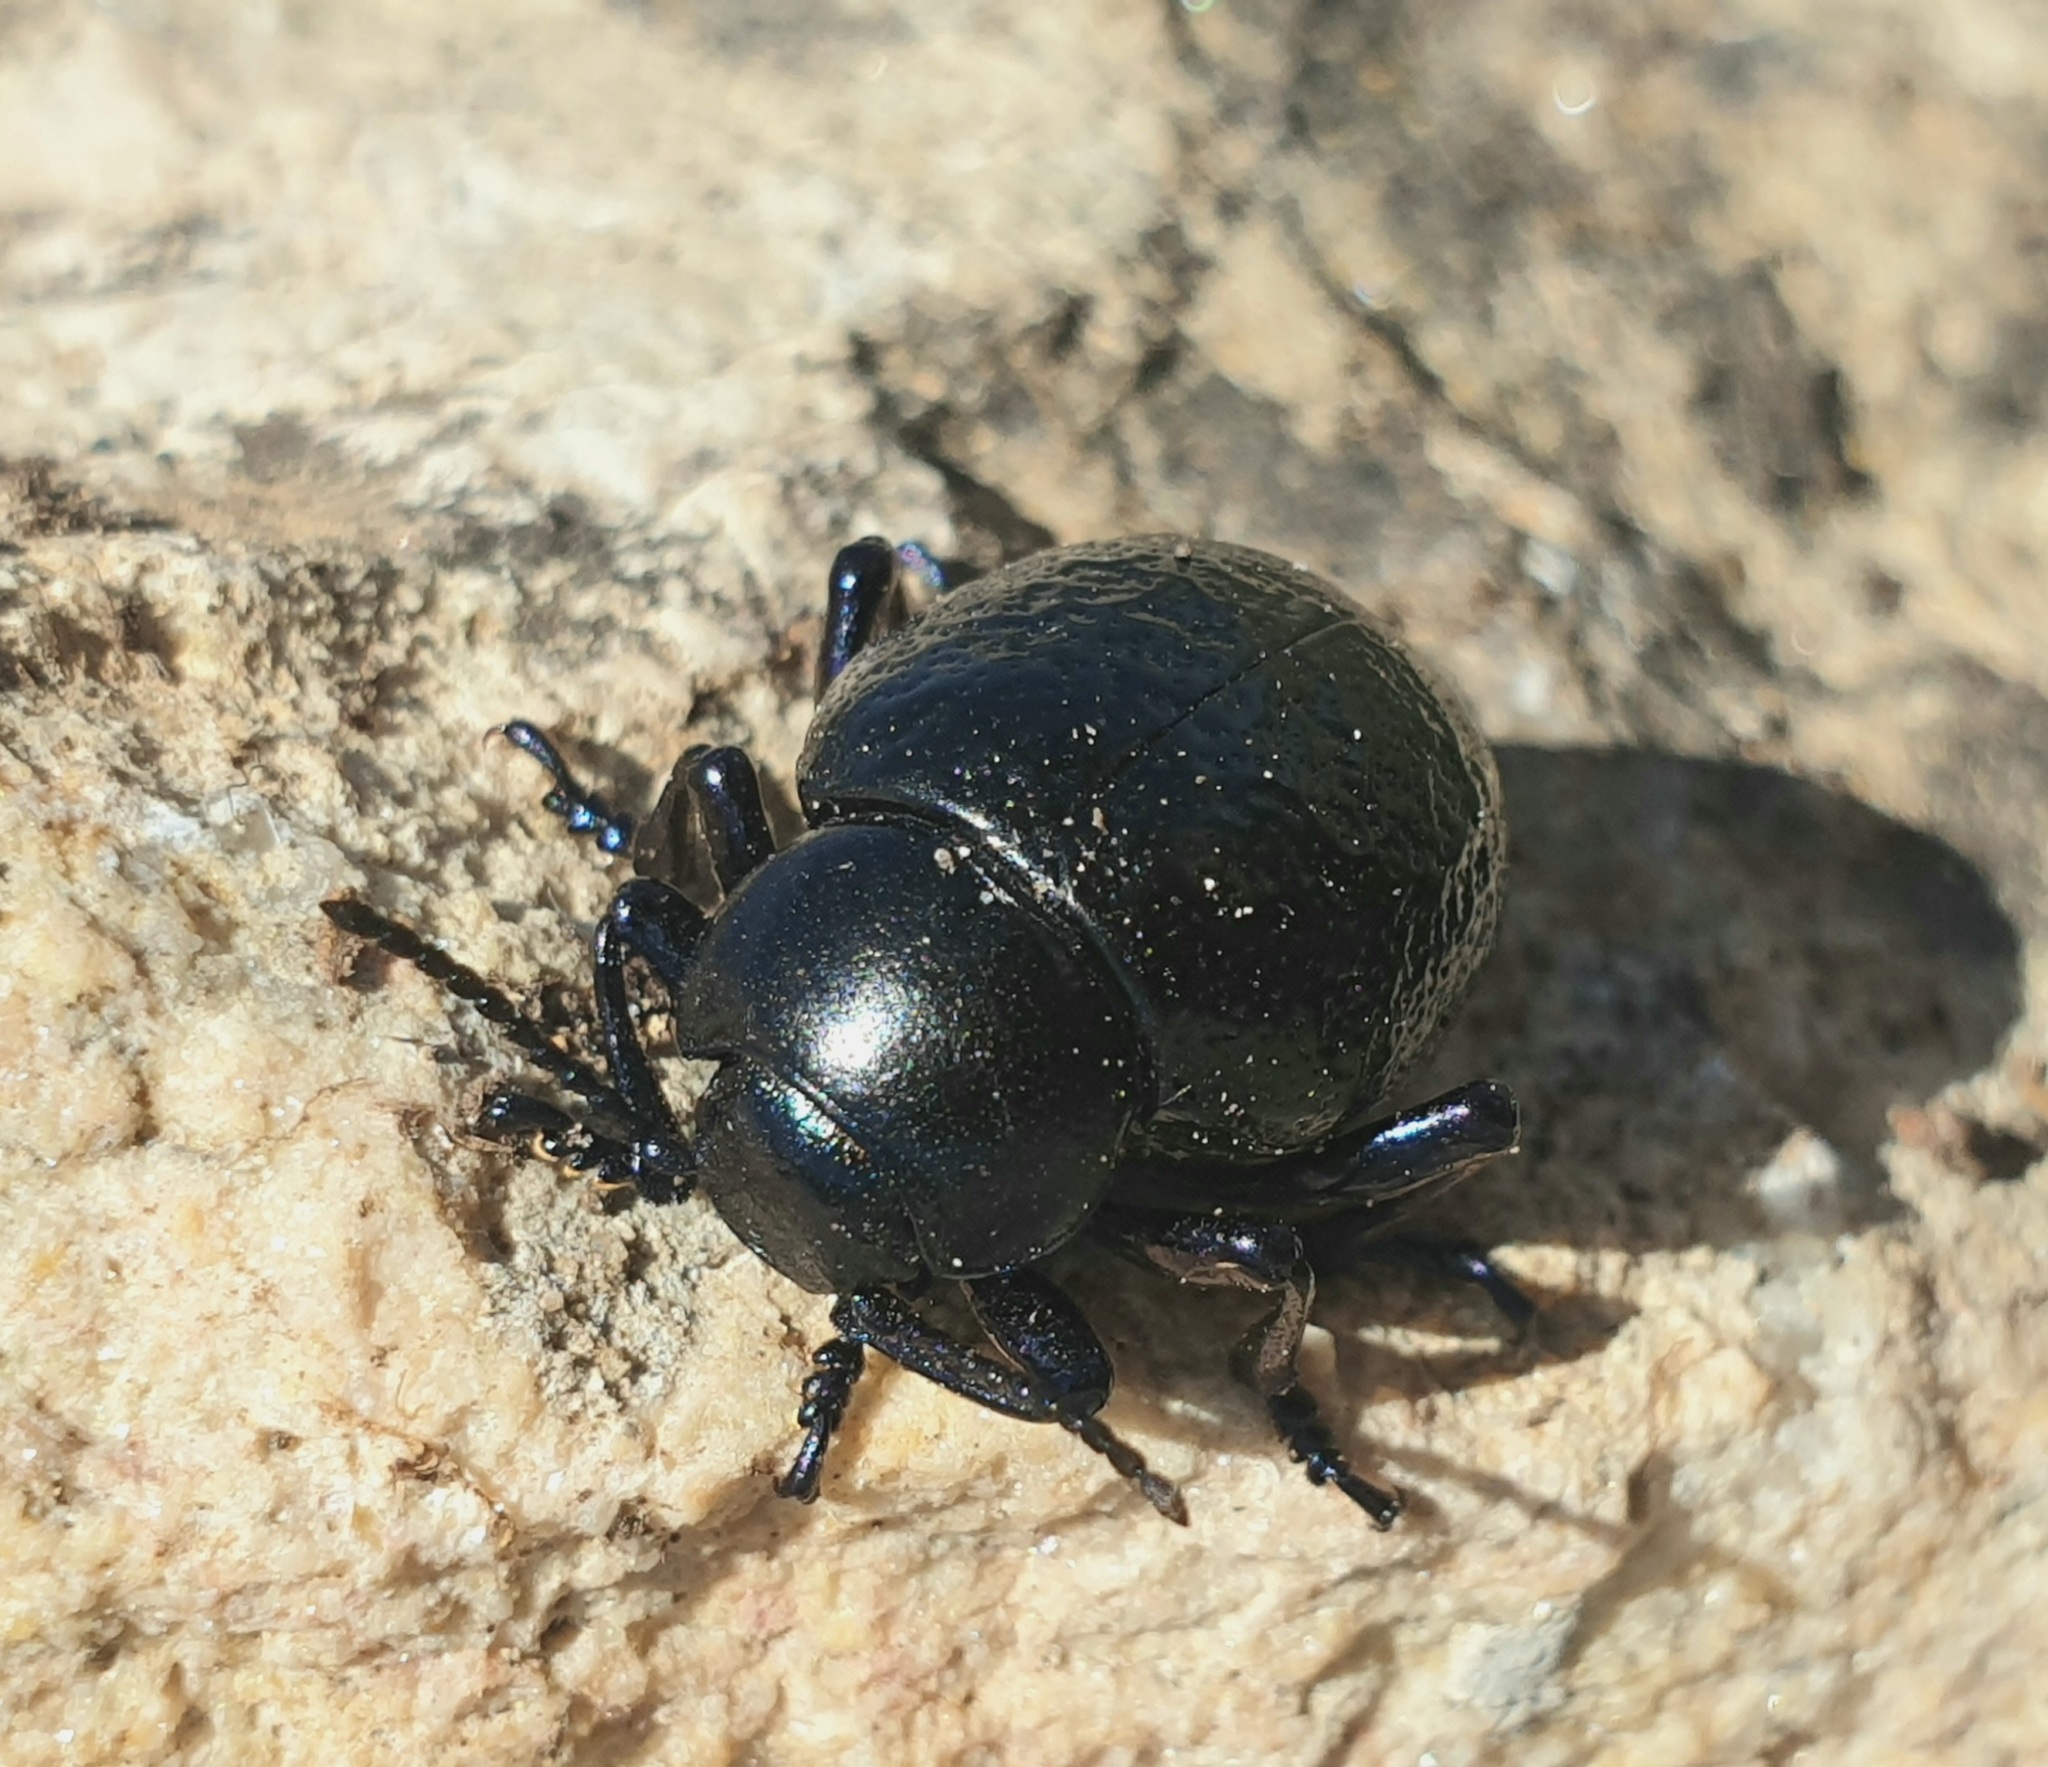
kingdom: Animalia
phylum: Arthropoda
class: Insecta
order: Coleoptera
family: Chrysomelidae
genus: Timarcha
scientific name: Timarcha sardea
